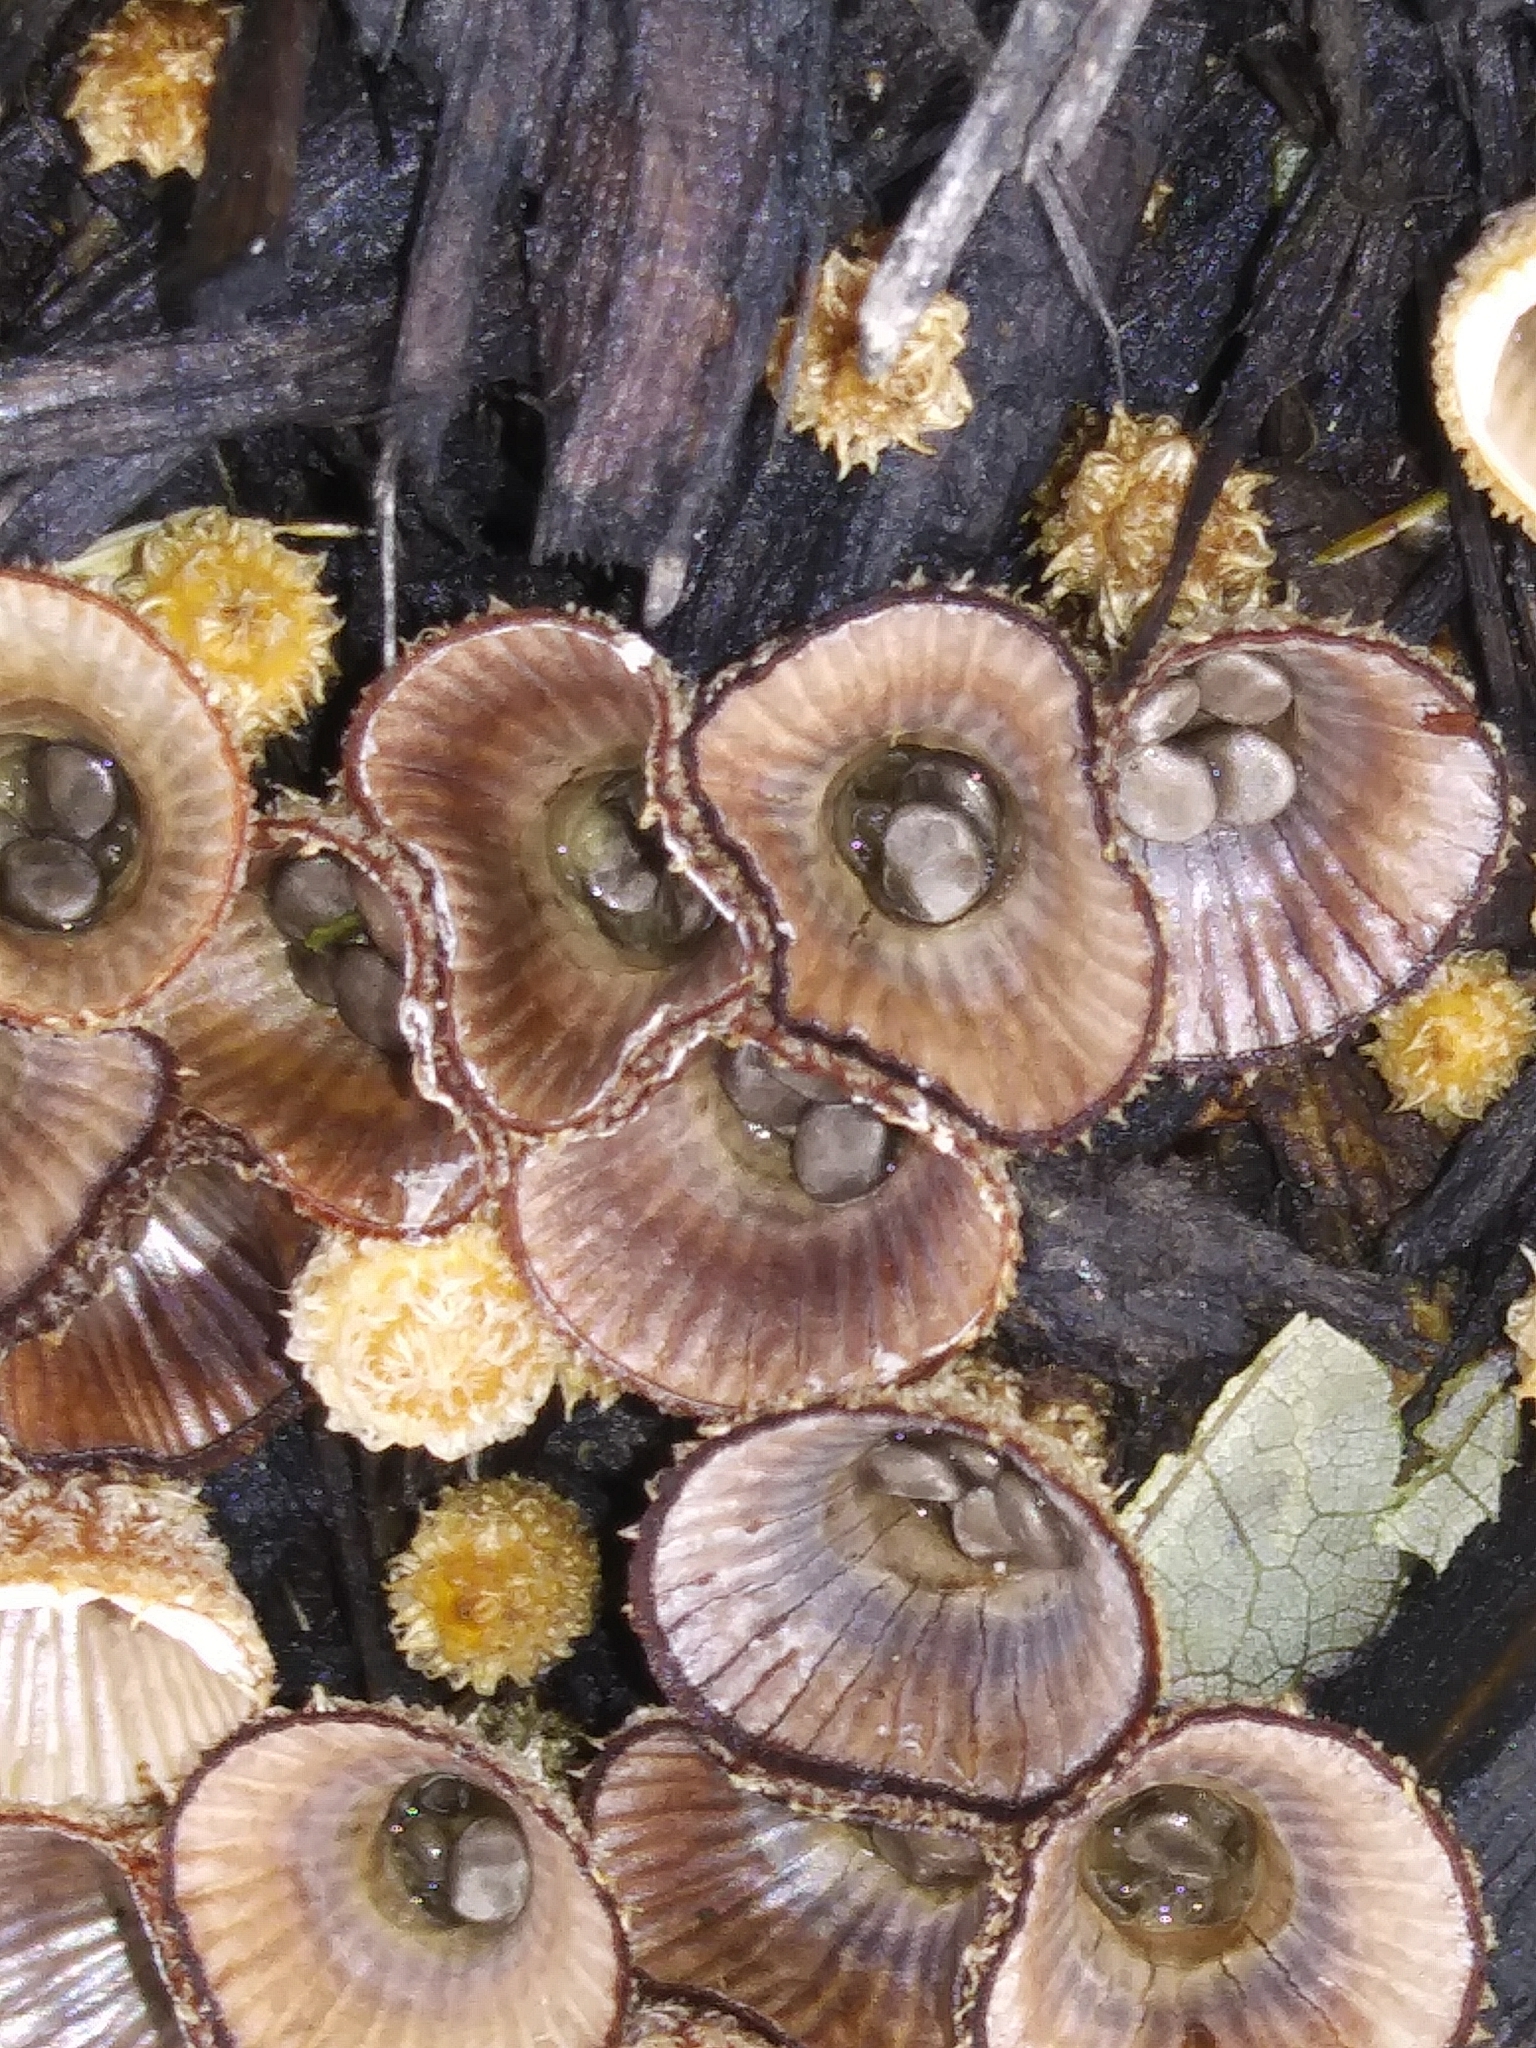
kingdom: Fungi
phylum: Basidiomycota
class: Agaricomycetes
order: Agaricales
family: Agaricaceae
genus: Cyathus
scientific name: Cyathus striatus
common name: Fluted bird's nest
